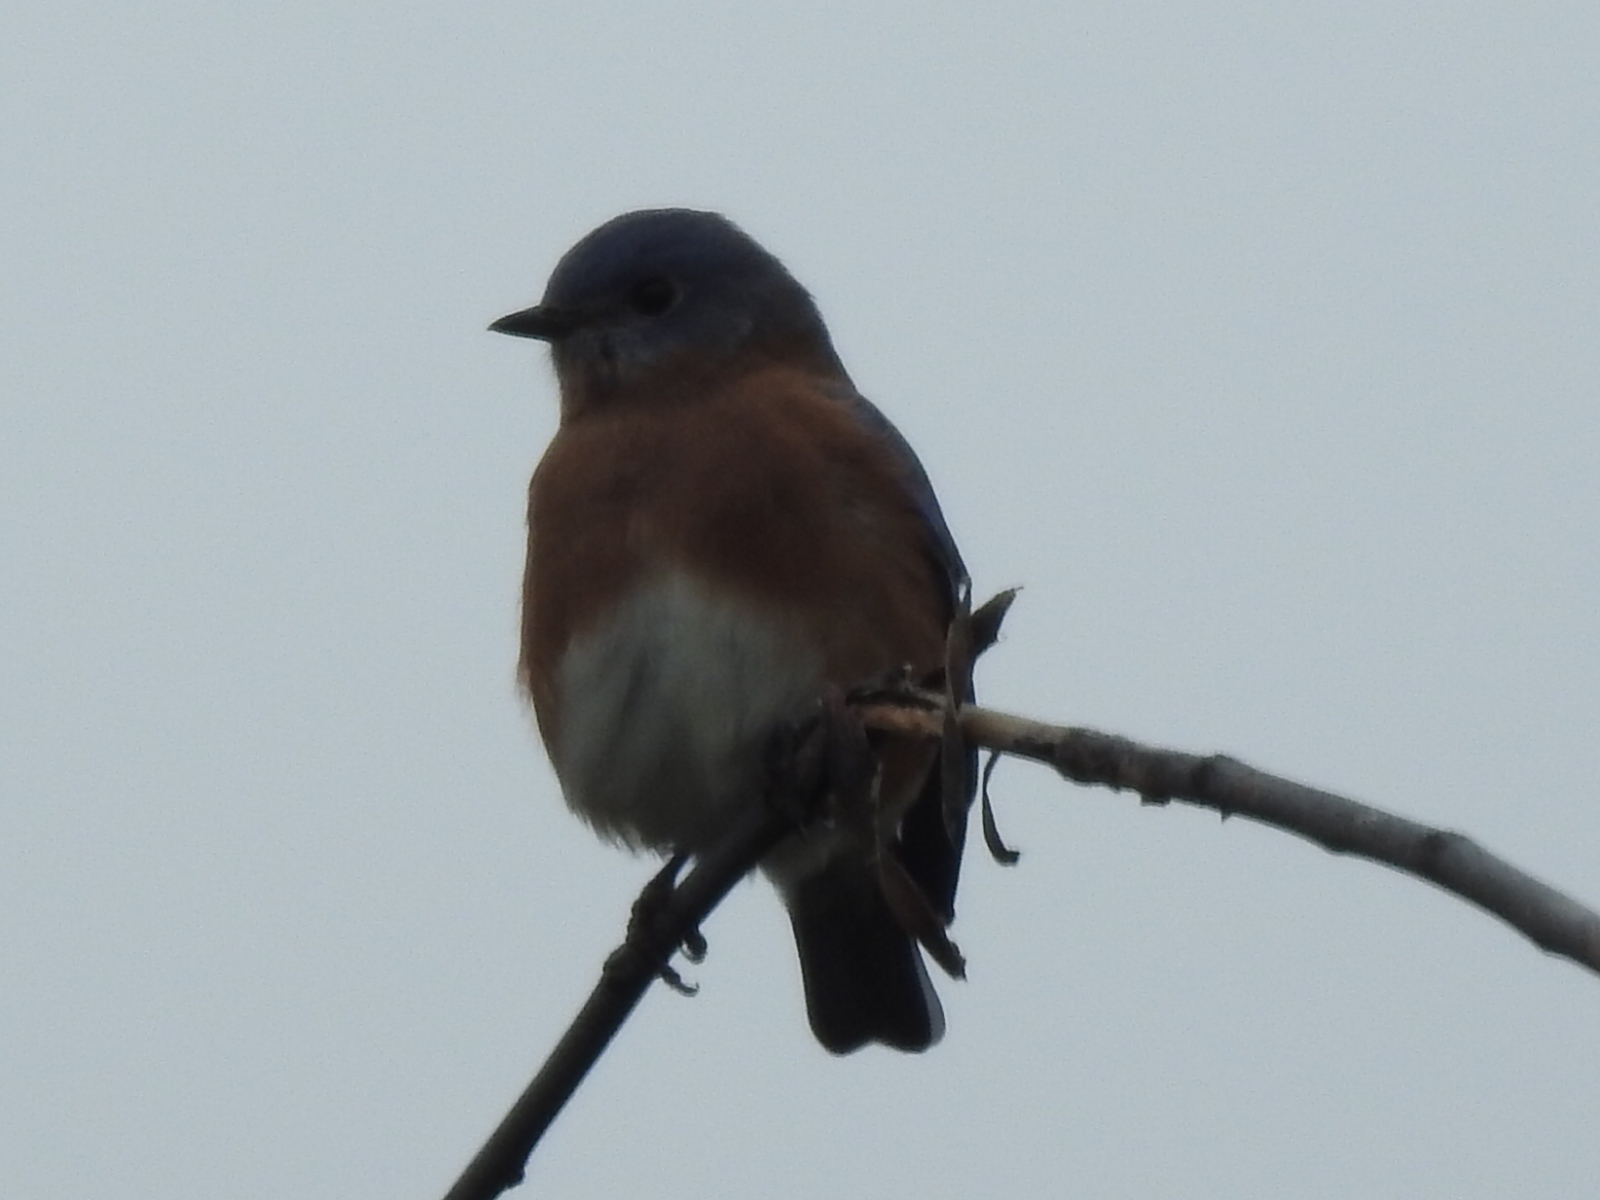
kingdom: Animalia
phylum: Chordata
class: Aves
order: Passeriformes
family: Turdidae
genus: Sialia
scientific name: Sialia sialis
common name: Eastern bluebird
